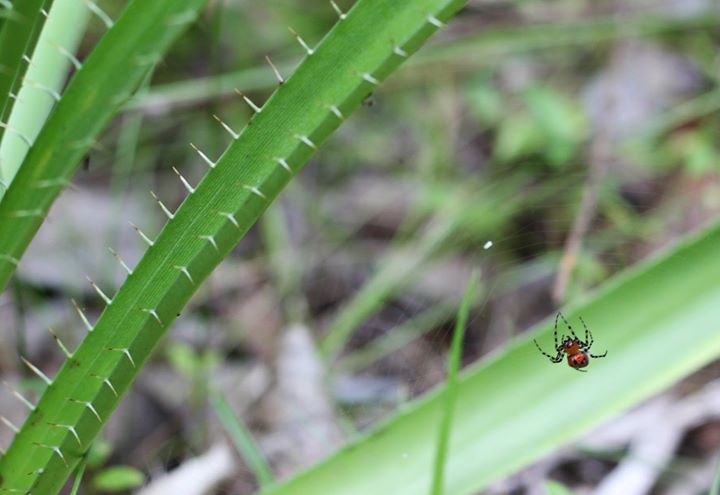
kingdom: Animalia
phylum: Arthropoda
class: Arachnida
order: Araneae
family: Araneidae
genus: Alpaida
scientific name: Alpaida gallardoi
